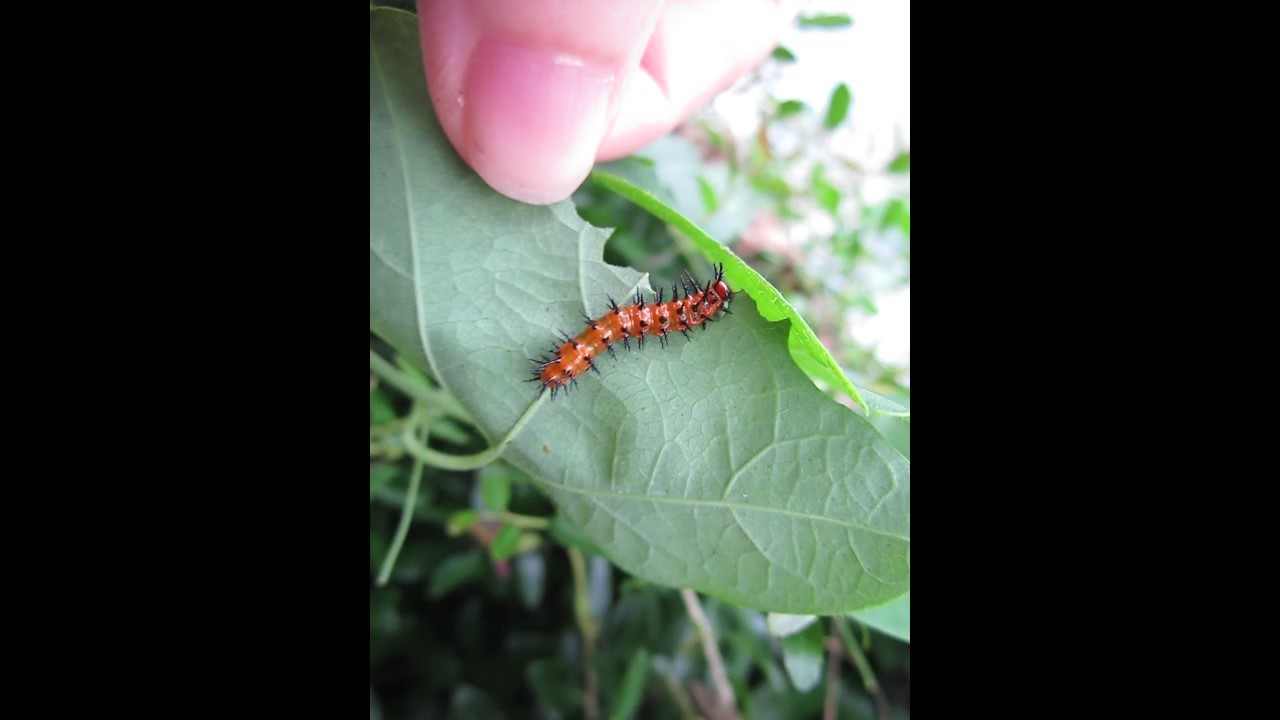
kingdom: Animalia
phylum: Arthropoda
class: Insecta
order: Lepidoptera
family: Nymphalidae
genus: Dione
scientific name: Dione vanillae
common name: Gulf fritillary
